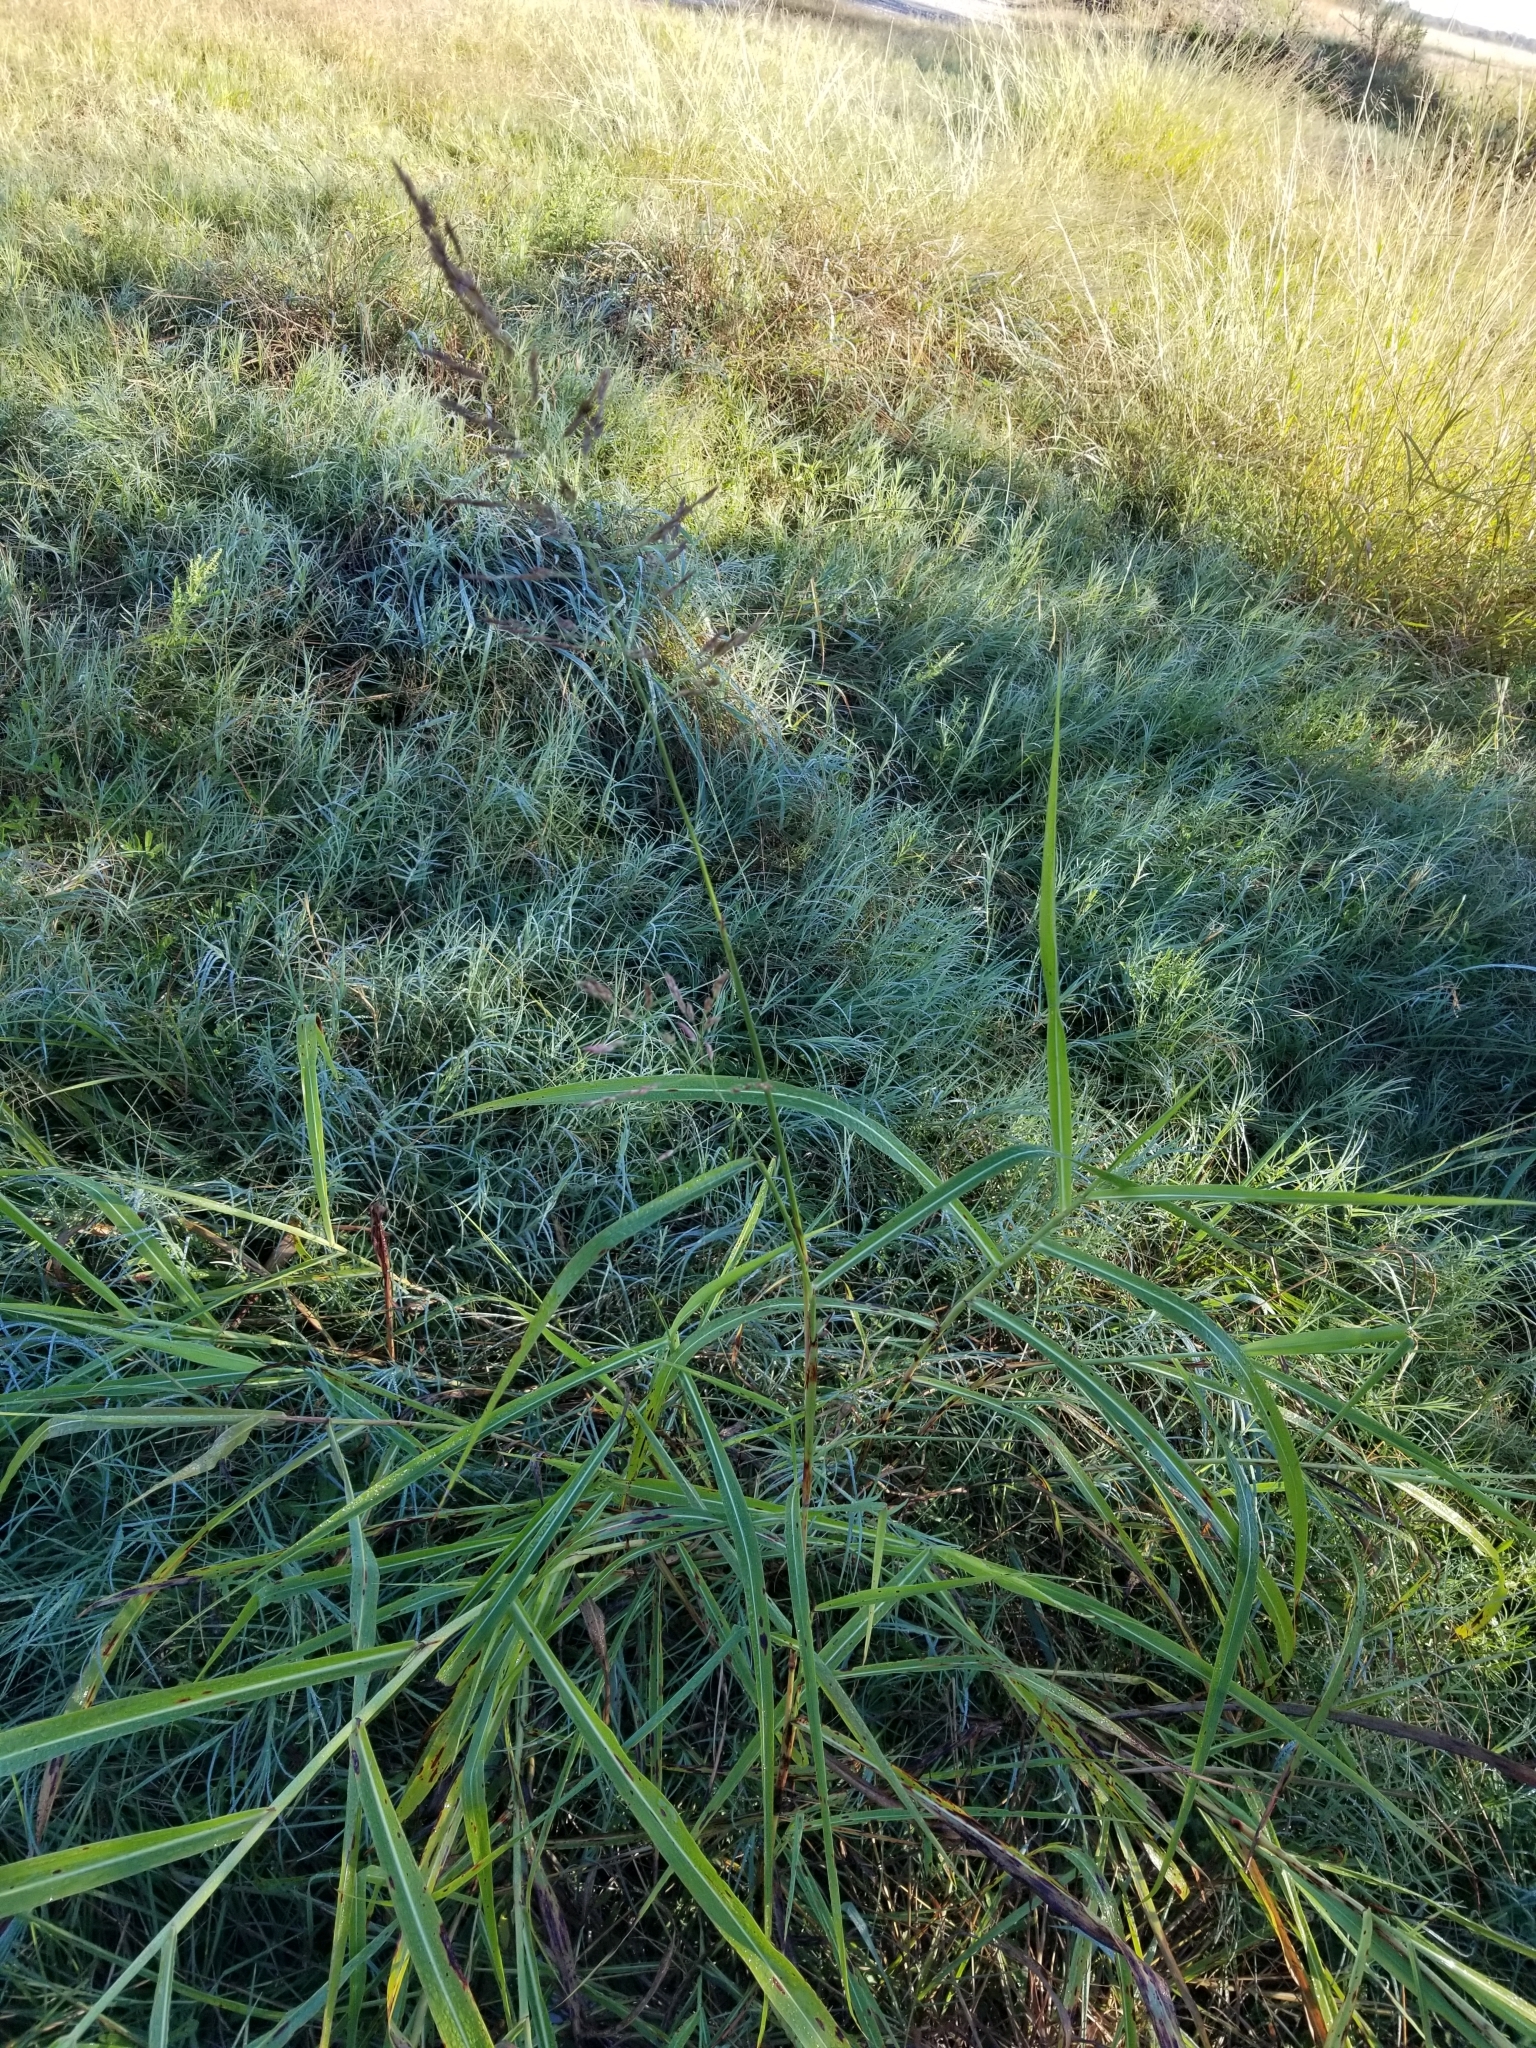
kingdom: Plantae
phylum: Tracheophyta
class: Liliopsida
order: Poales
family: Poaceae
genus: Sorghum
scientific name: Sorghum halepense
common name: Johnson-grass
